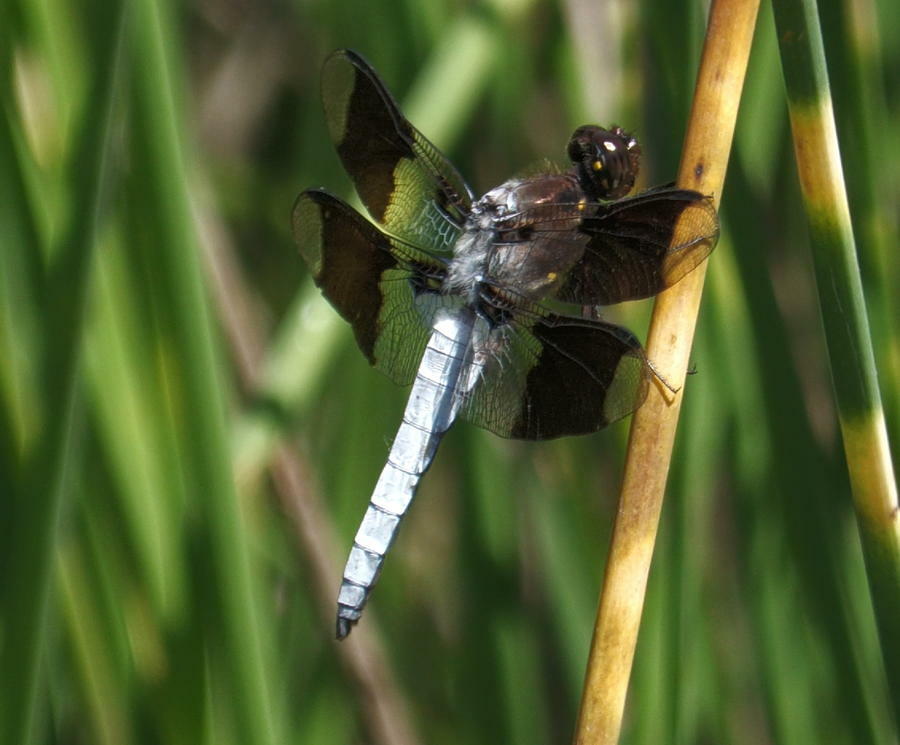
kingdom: Animalia
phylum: Arthropoda
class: Insecta
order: Odonata
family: Libellulidae
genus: Plathemis
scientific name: Plathemis lydia
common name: Common whitetail
